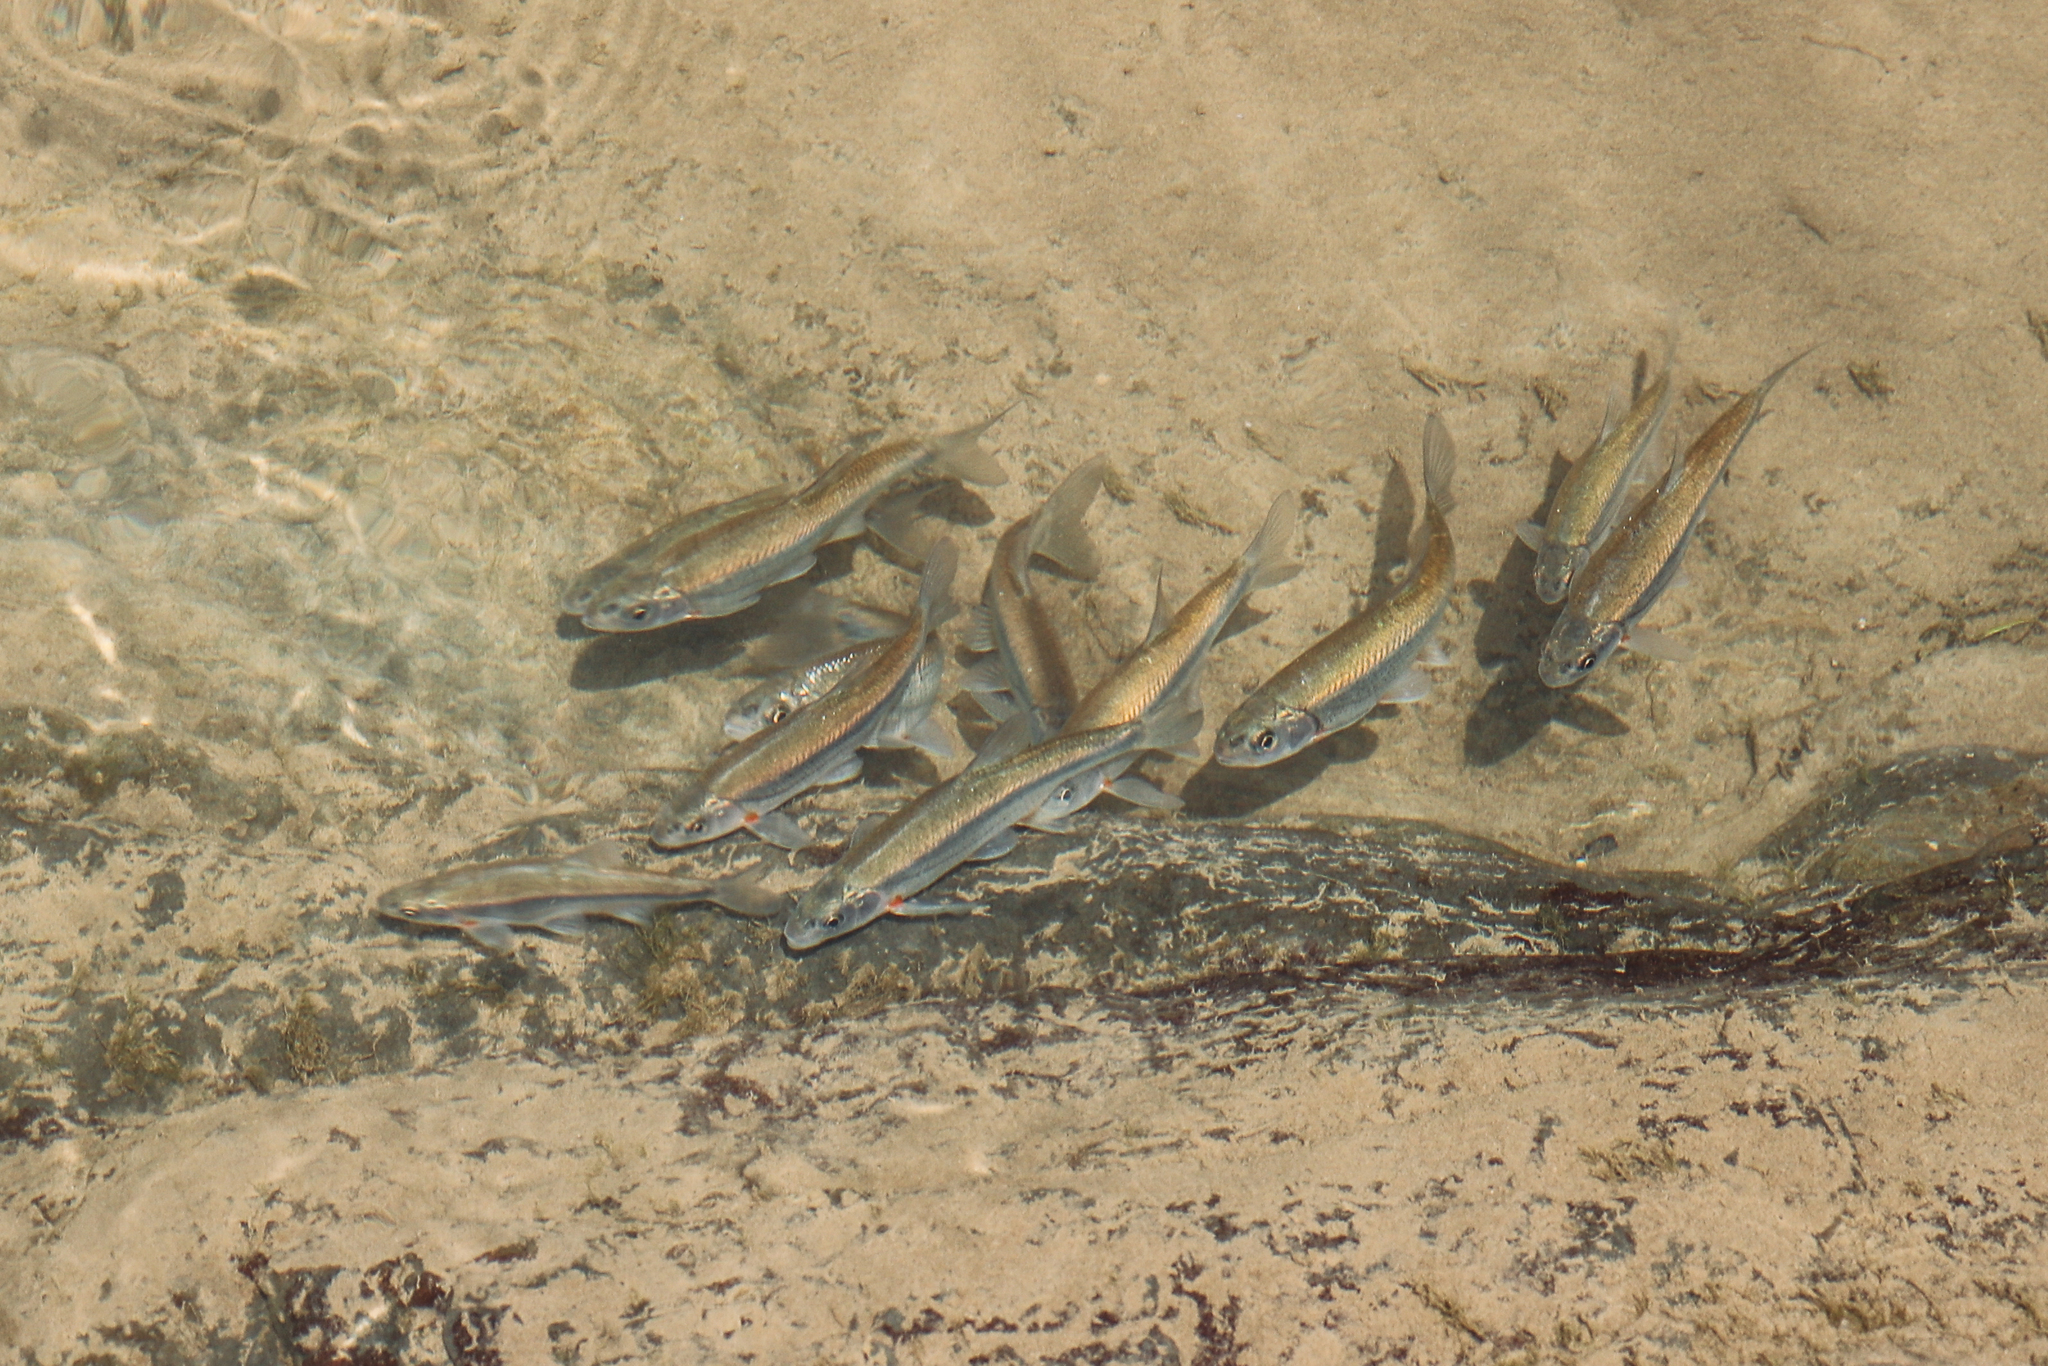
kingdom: Animalia
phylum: Chordata
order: Cypriniformes
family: Cyprinidae
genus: Alburnoides
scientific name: Alburnoides fasciatus
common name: Transcaucasian sprilin
